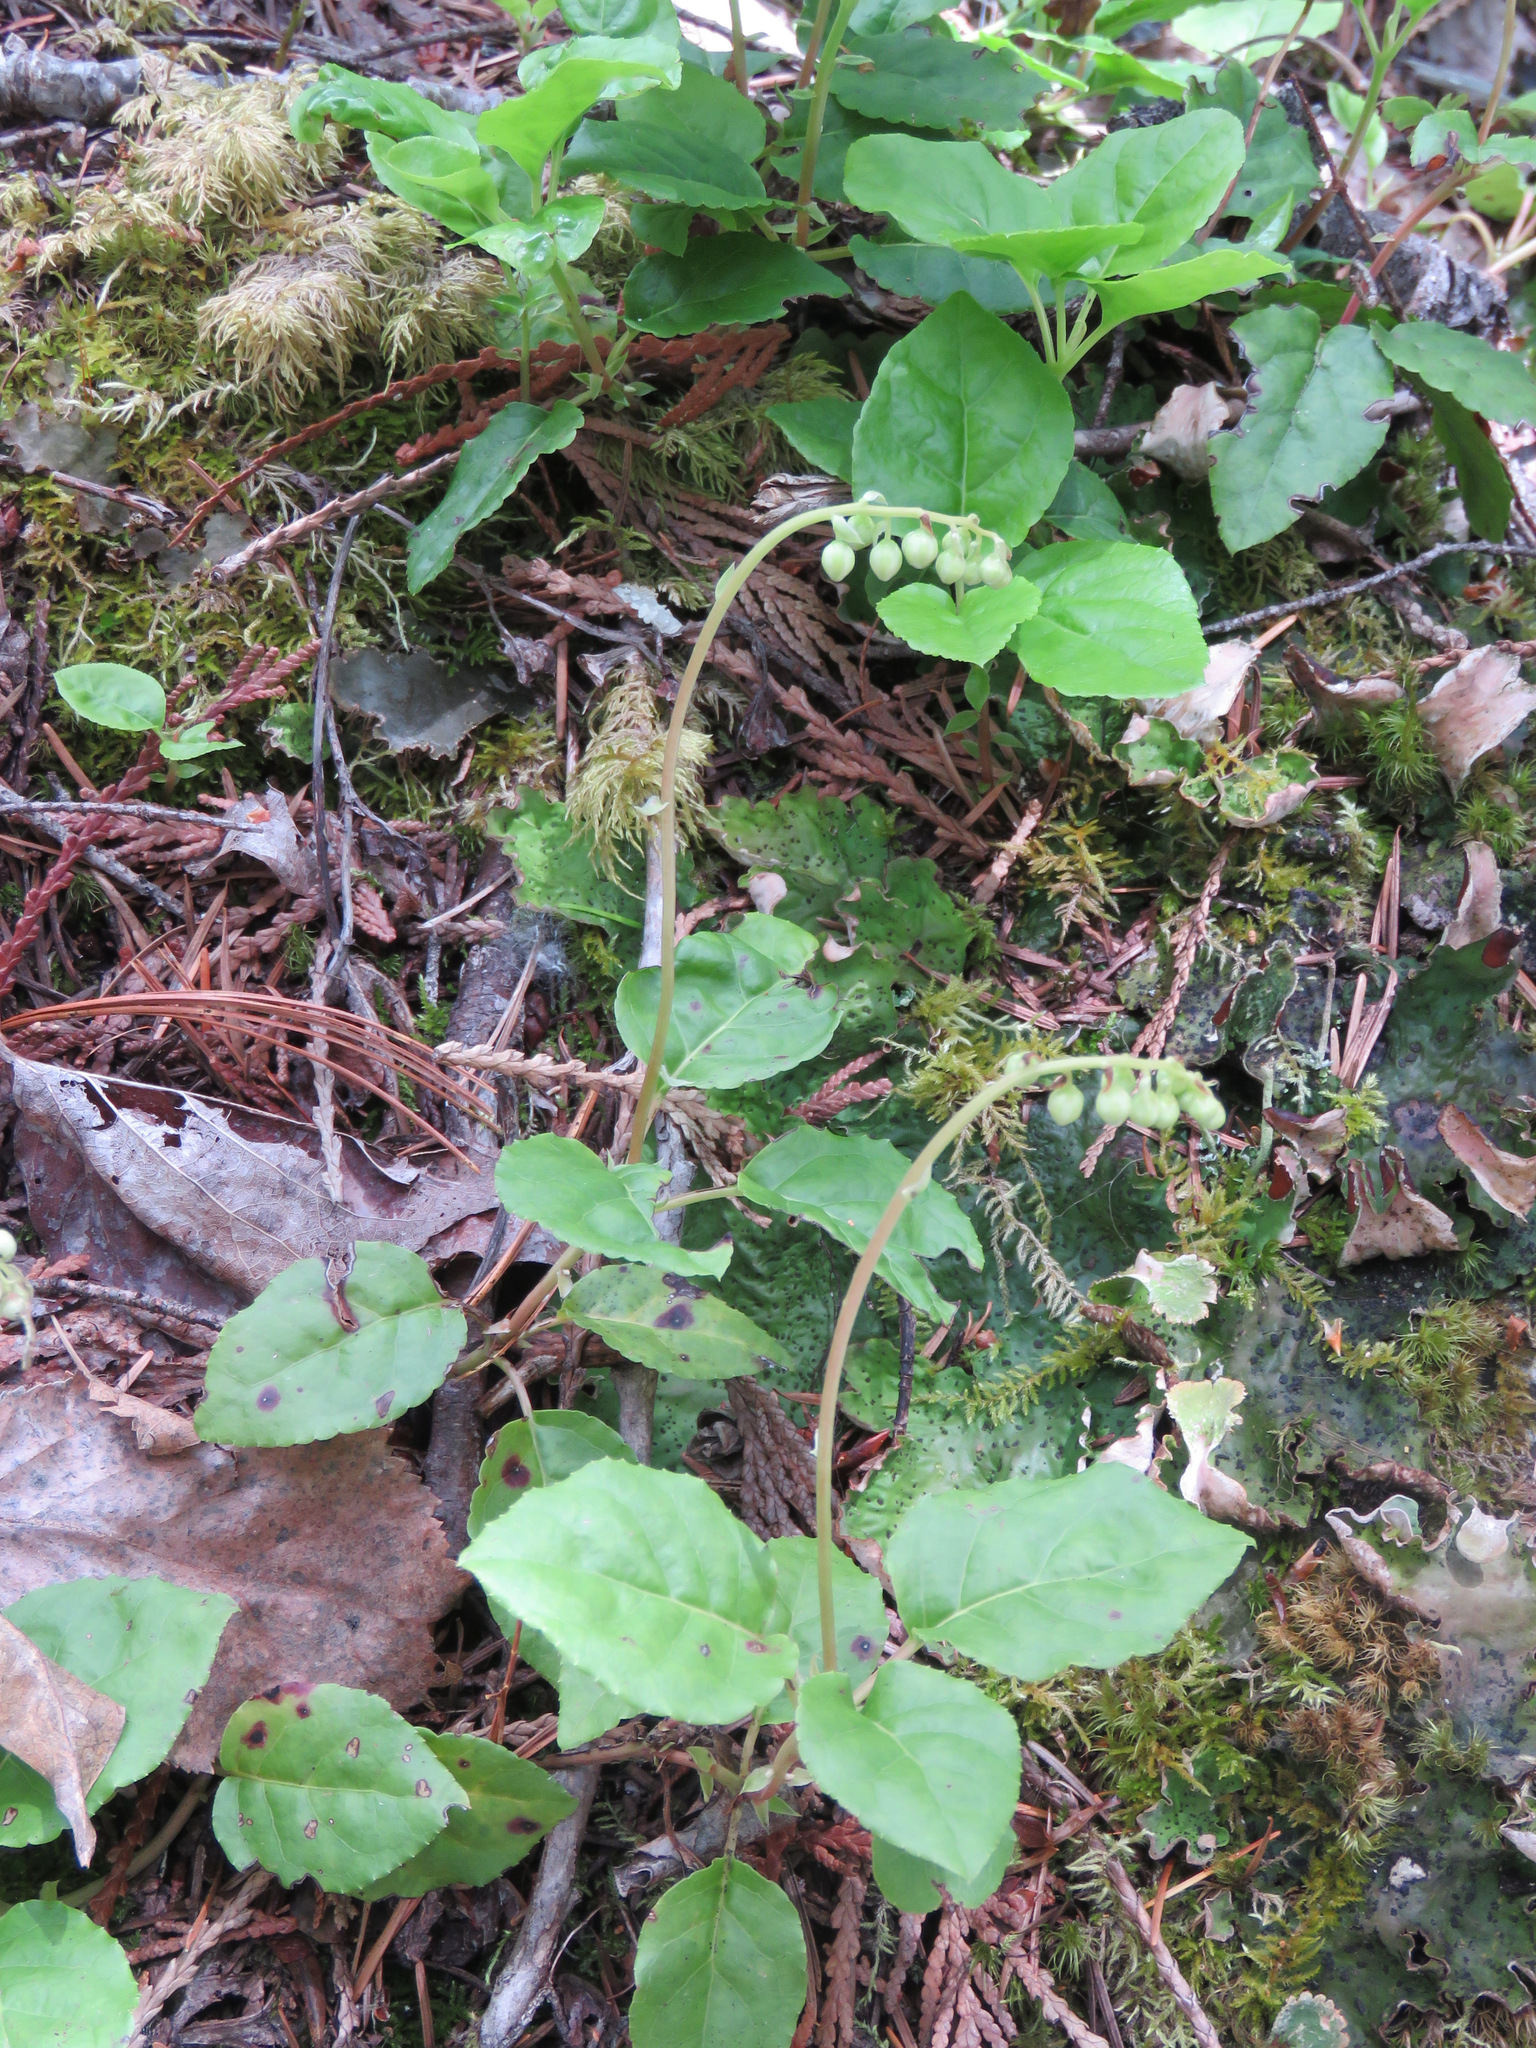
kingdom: Plantae
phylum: Tracheophyta
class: Magnoliopsida
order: Ericales
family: Ericaceae
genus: Orthilia
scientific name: Orthilia secunda
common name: One-sided orthilia
